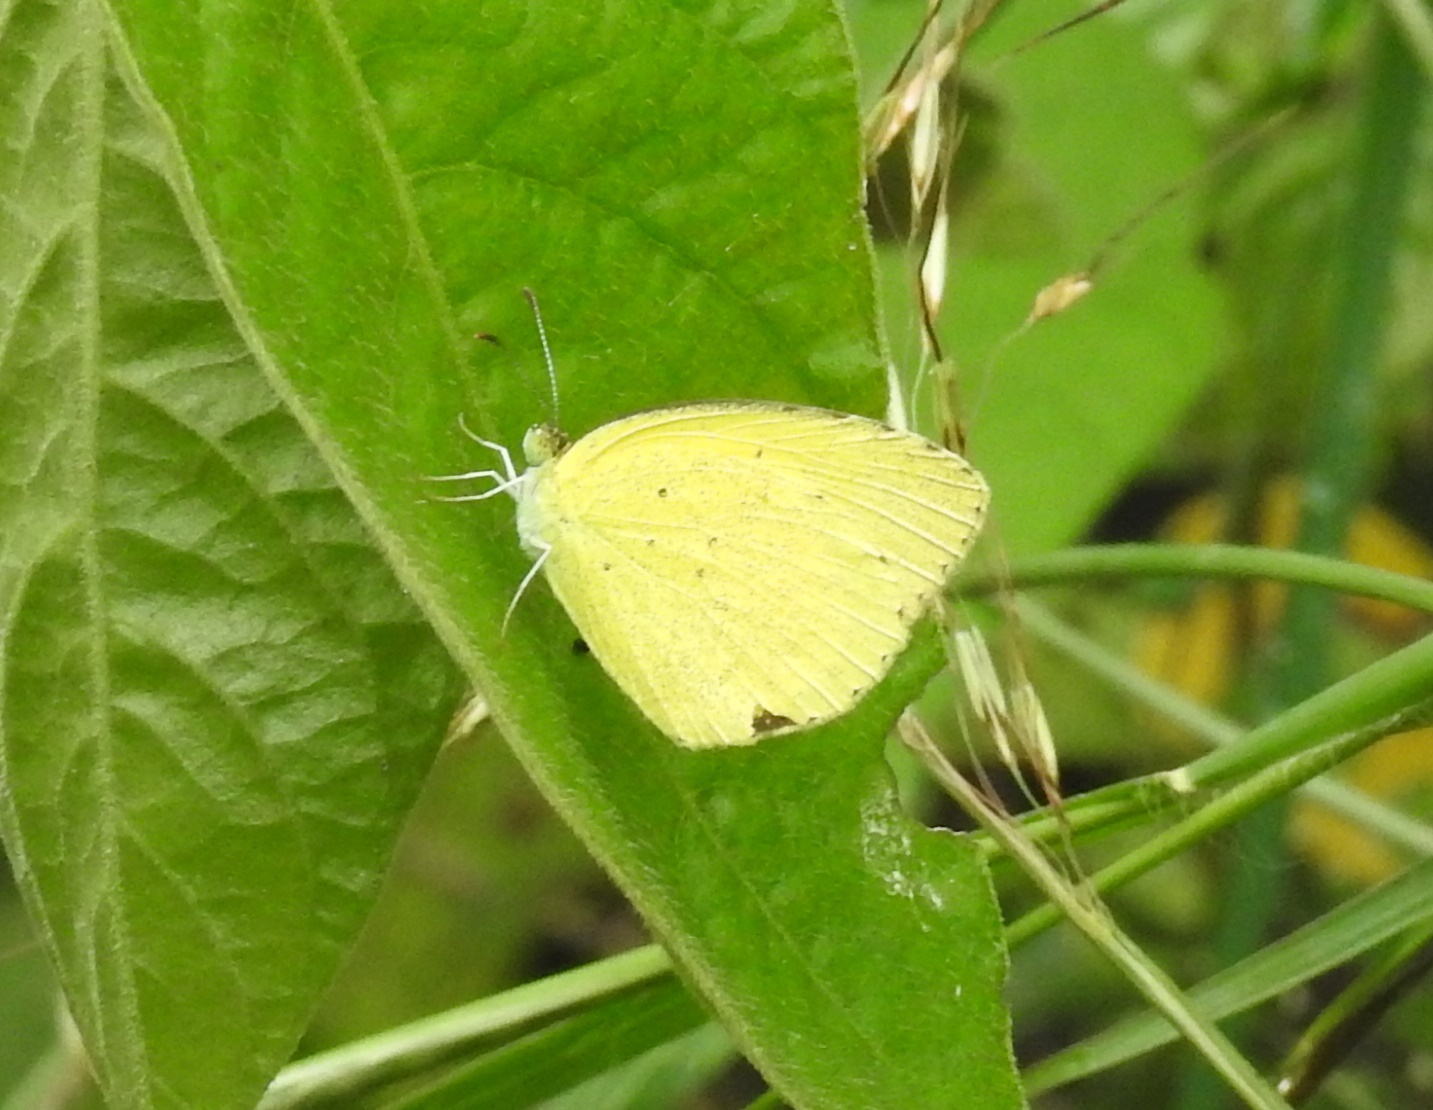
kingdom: Animalia
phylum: Arthropoda
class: Insecta
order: Lepidoptera
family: Pieridae
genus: Eurema
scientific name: Eurema brigitta
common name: Small grass yellow
